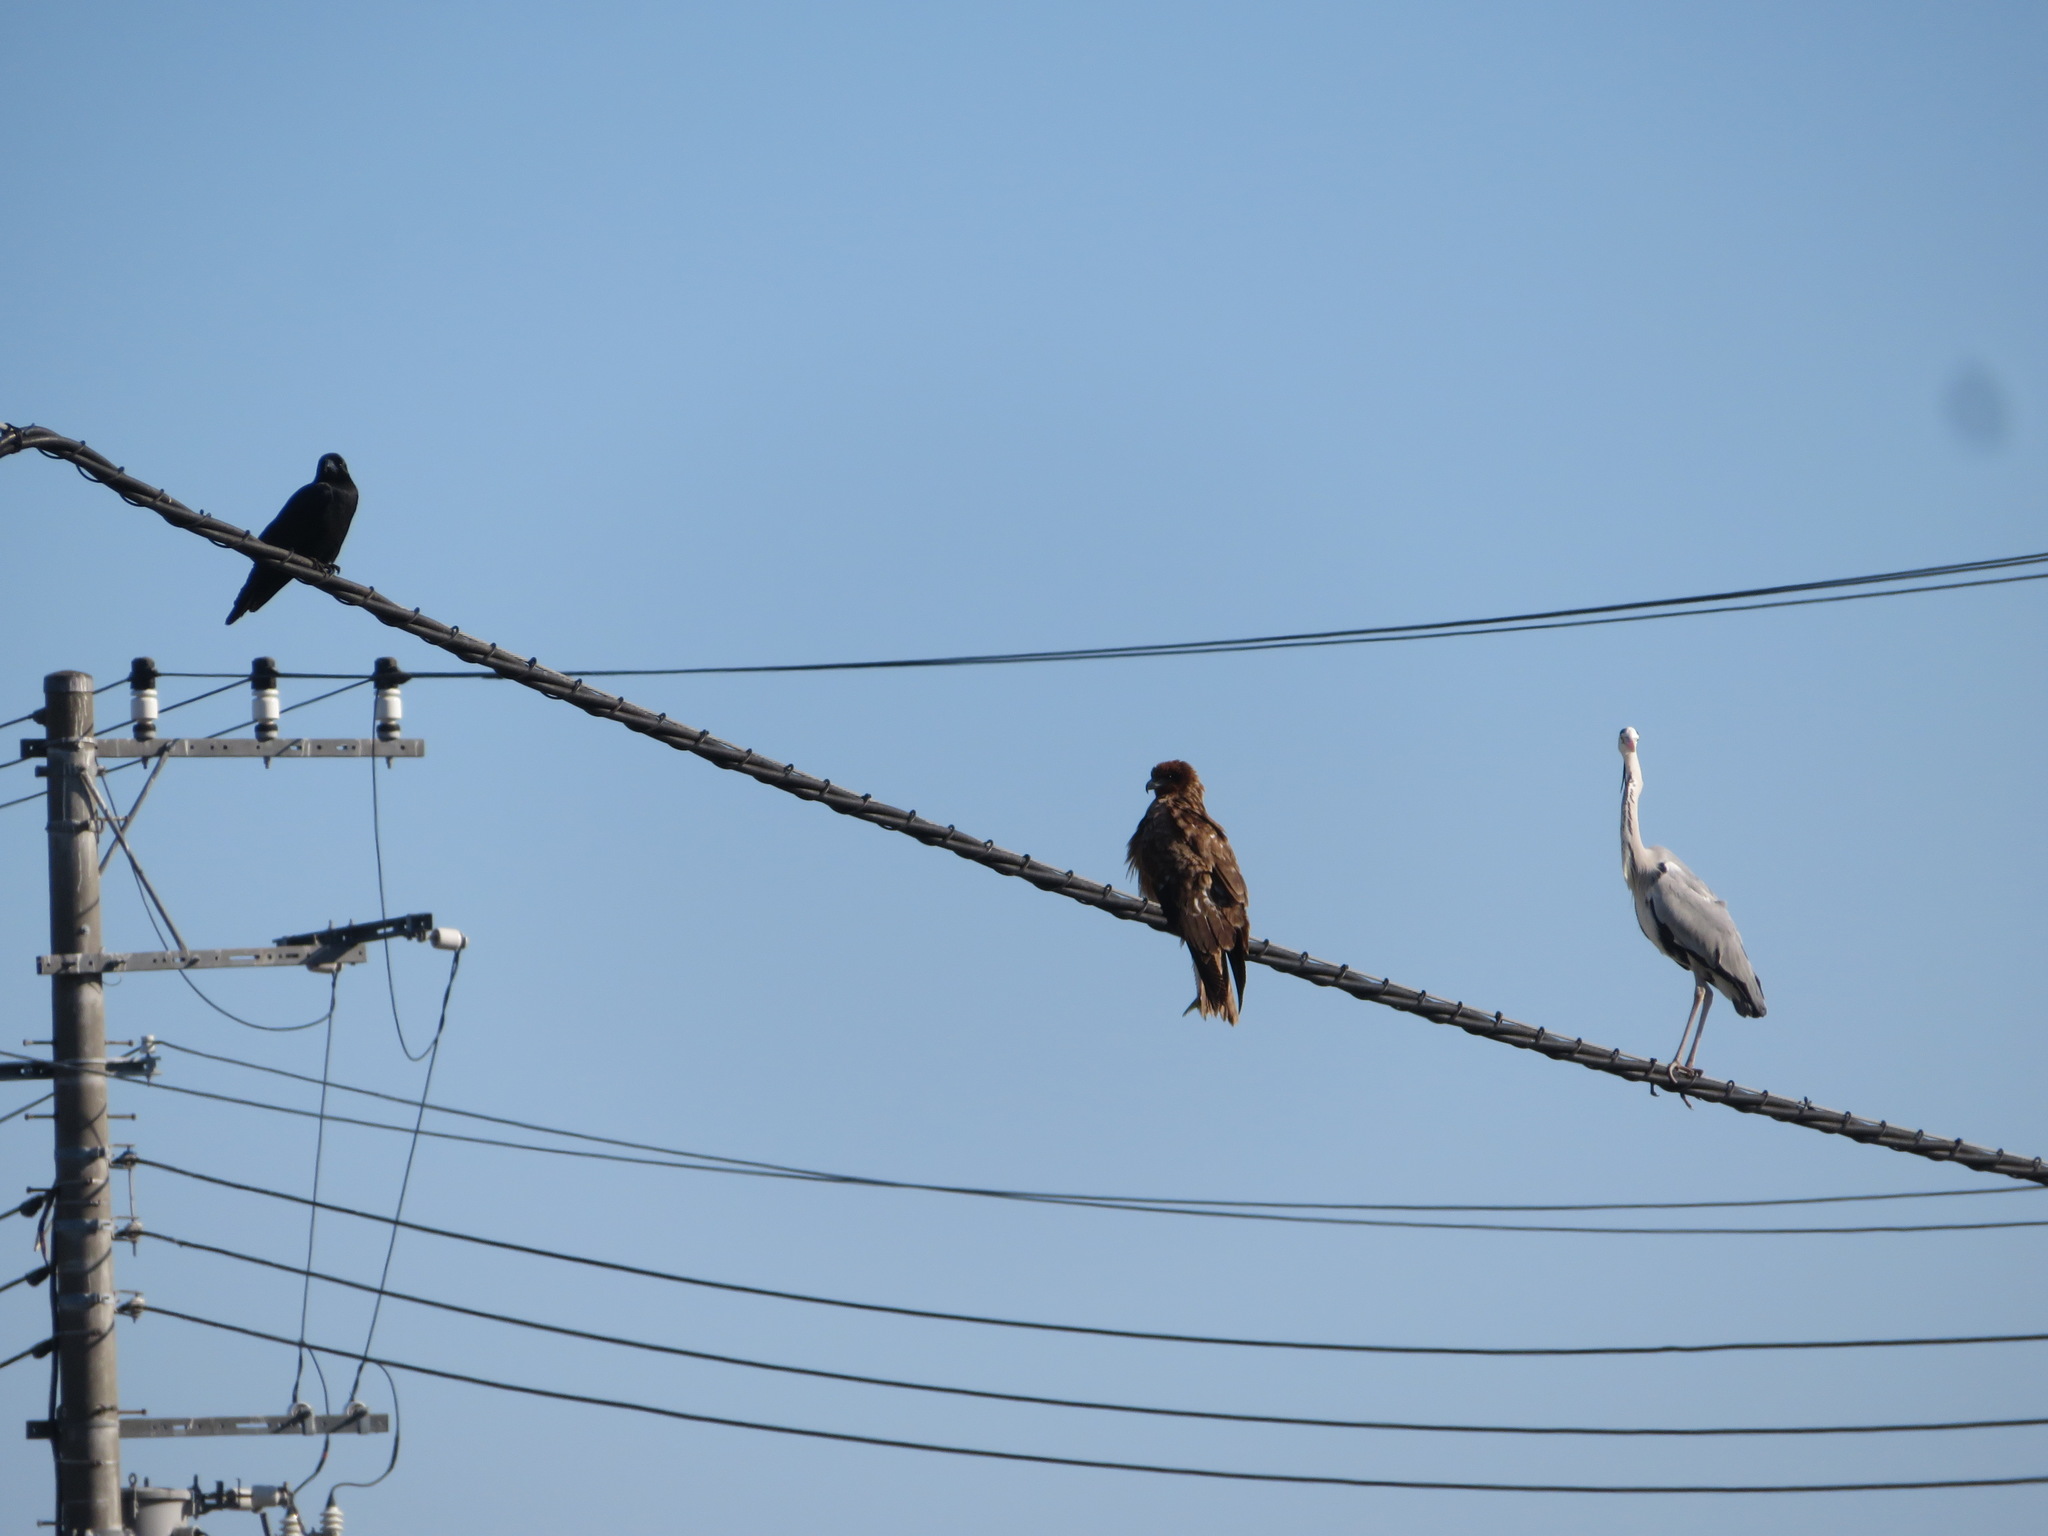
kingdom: Animalia
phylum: Chordata
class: Aves
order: Pelecaniformes
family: Ardeidae
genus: Ardea
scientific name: Ardea cinerea
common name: Grey heron
